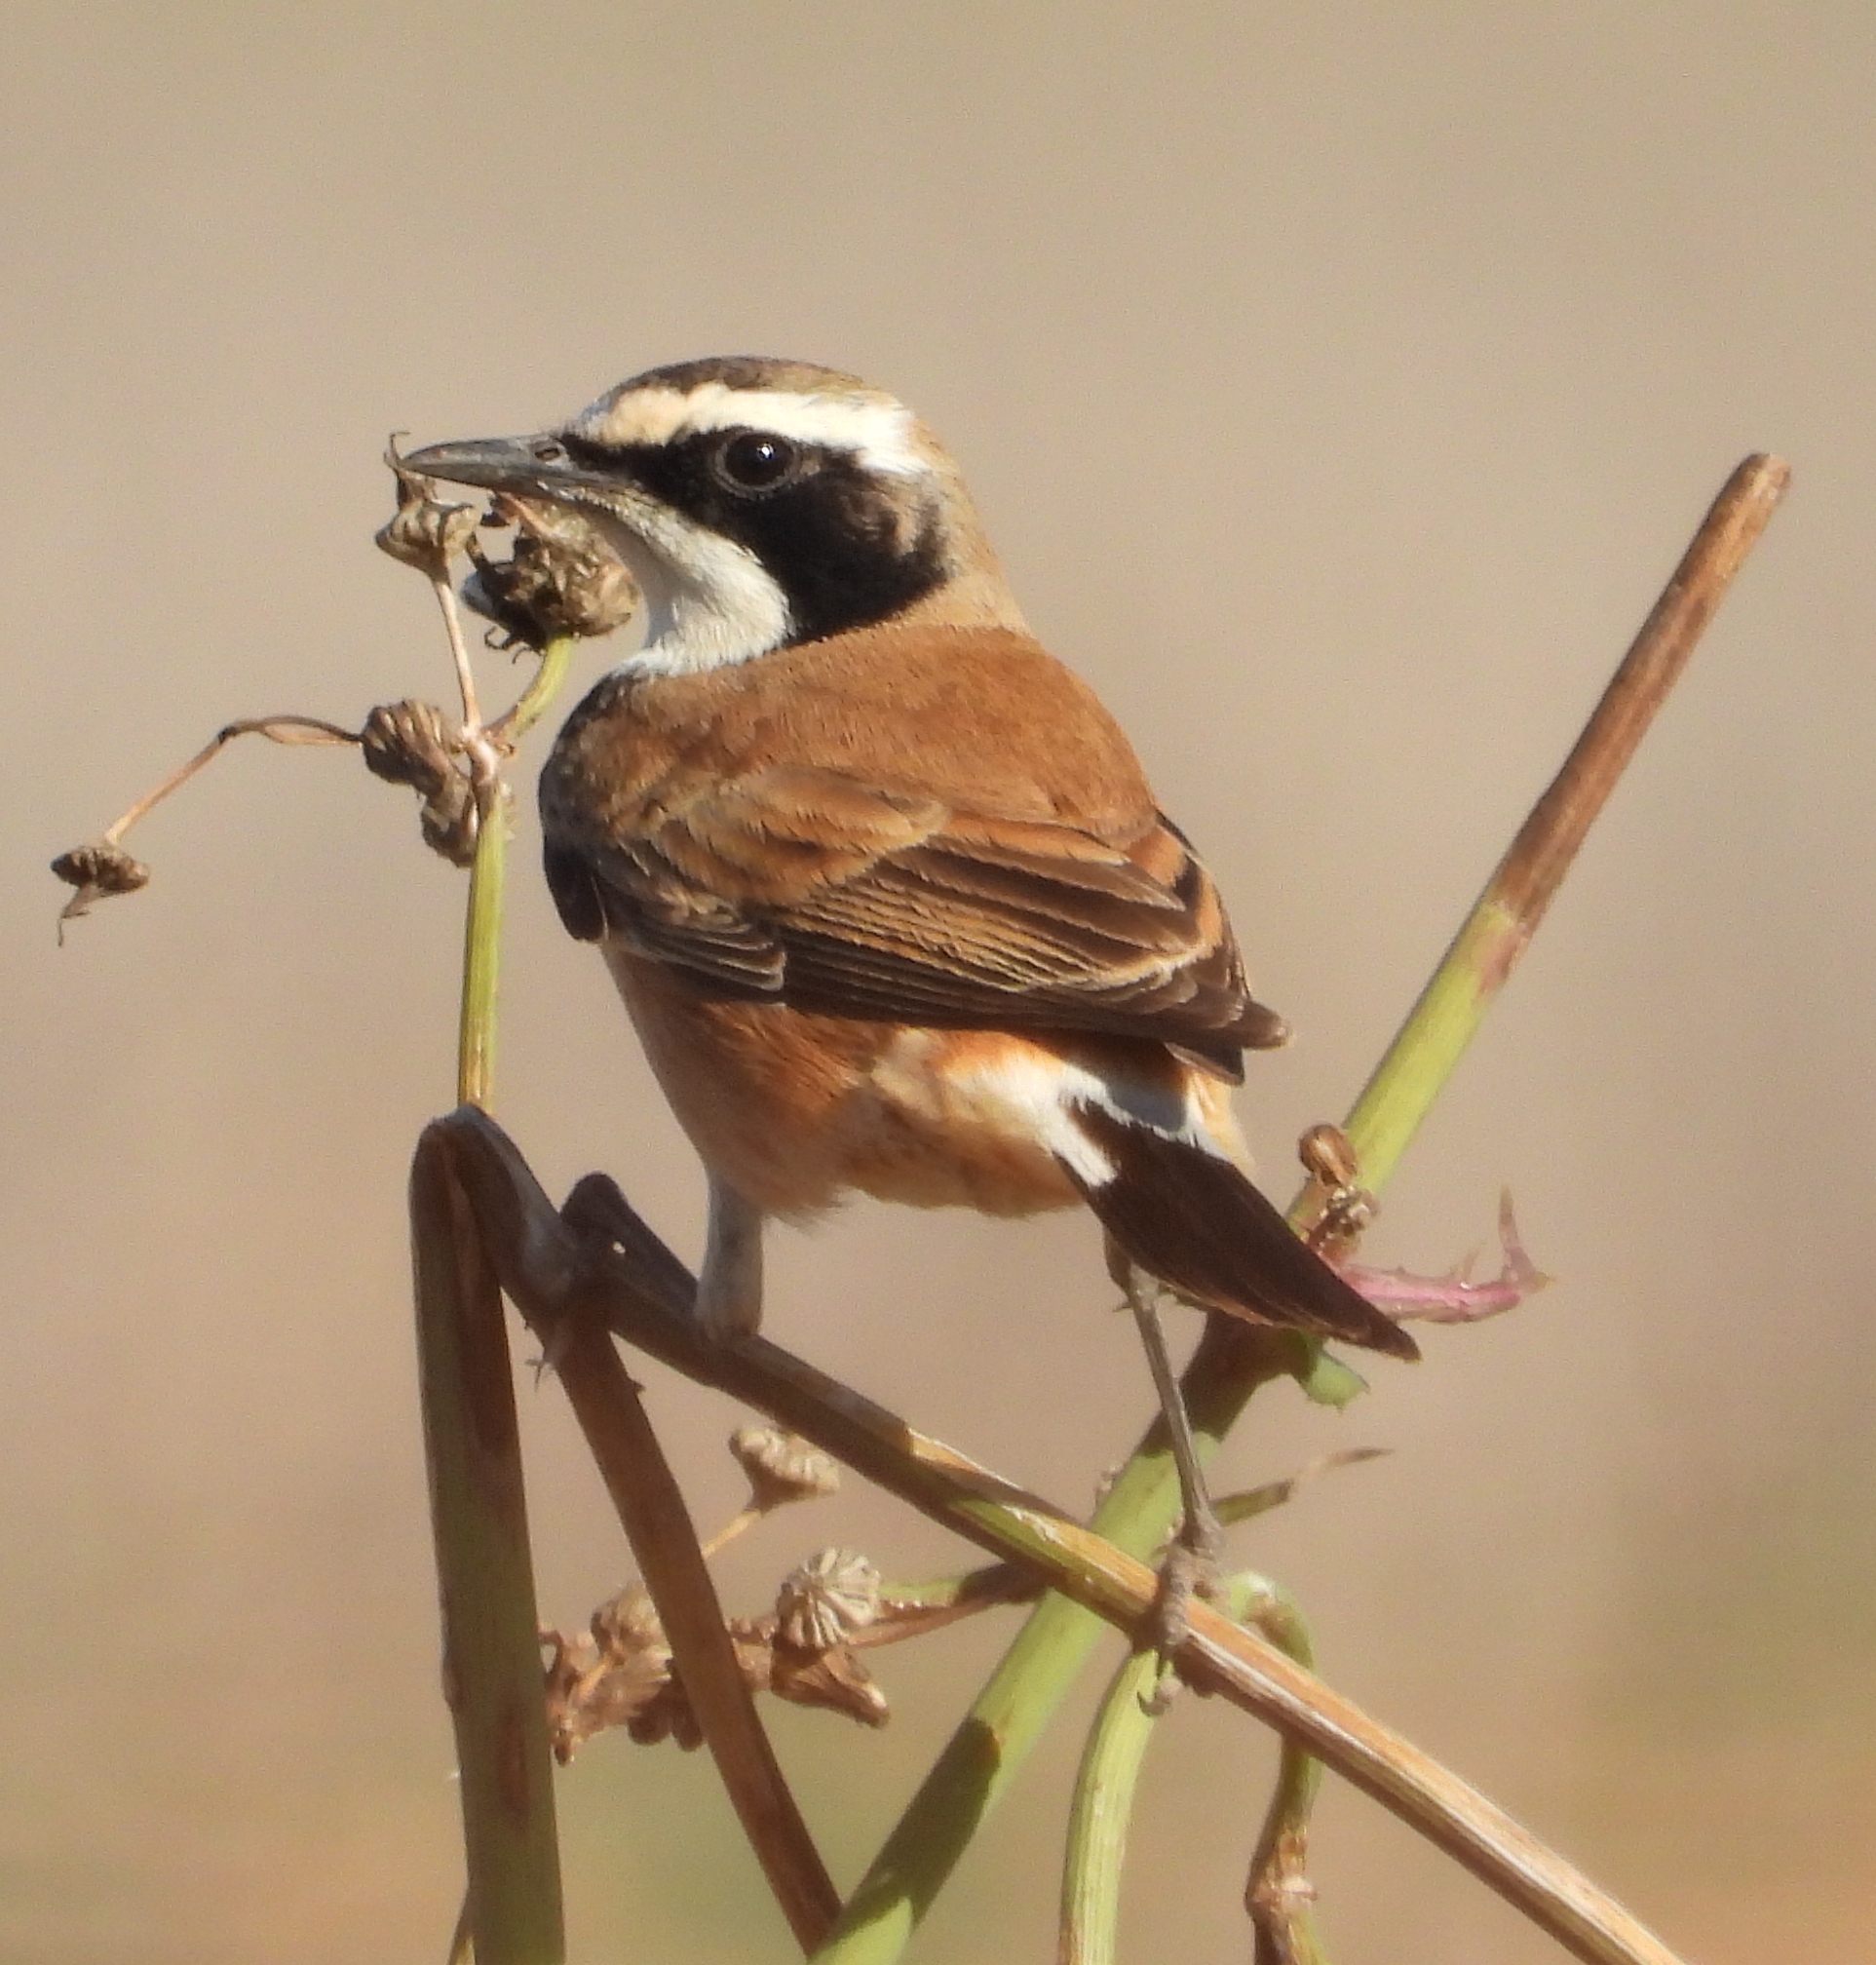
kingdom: Animalia
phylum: Chordata
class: Aves
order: Passeriformes
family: Muscicapidae
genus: Oenanthe
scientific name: Oenanthe pileata
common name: Capped wheatear
